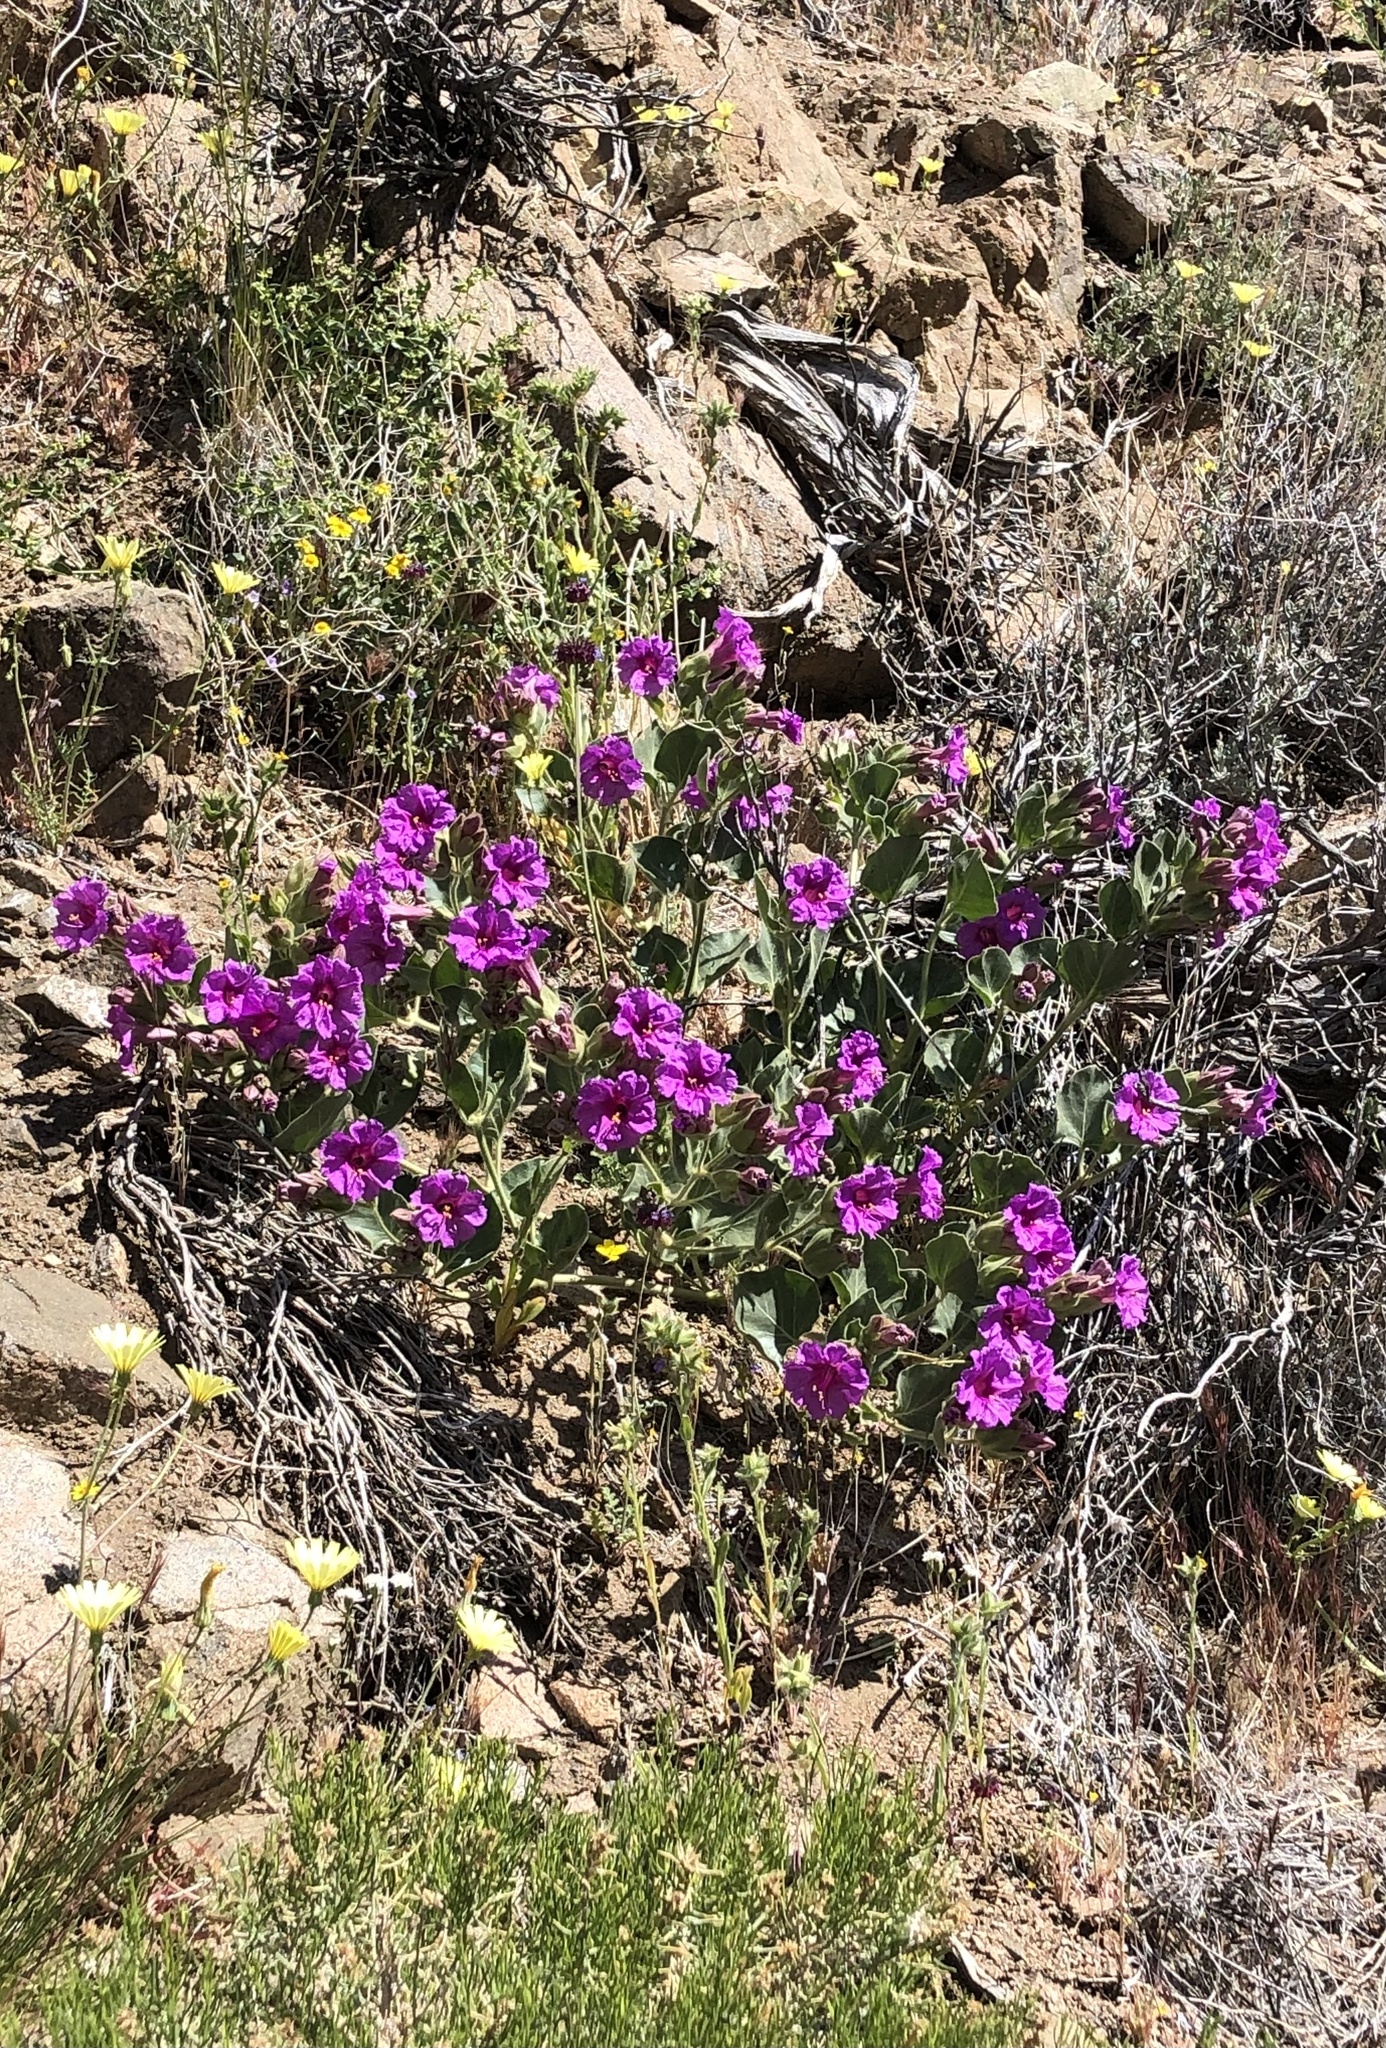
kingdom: Plantae
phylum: Tracheophyta
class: Magnoliopsida
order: Caryophyllales
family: Nyctaginaceae
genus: Mirabilis
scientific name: Mirabilis multiflora
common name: Froebel's four-o'clock
